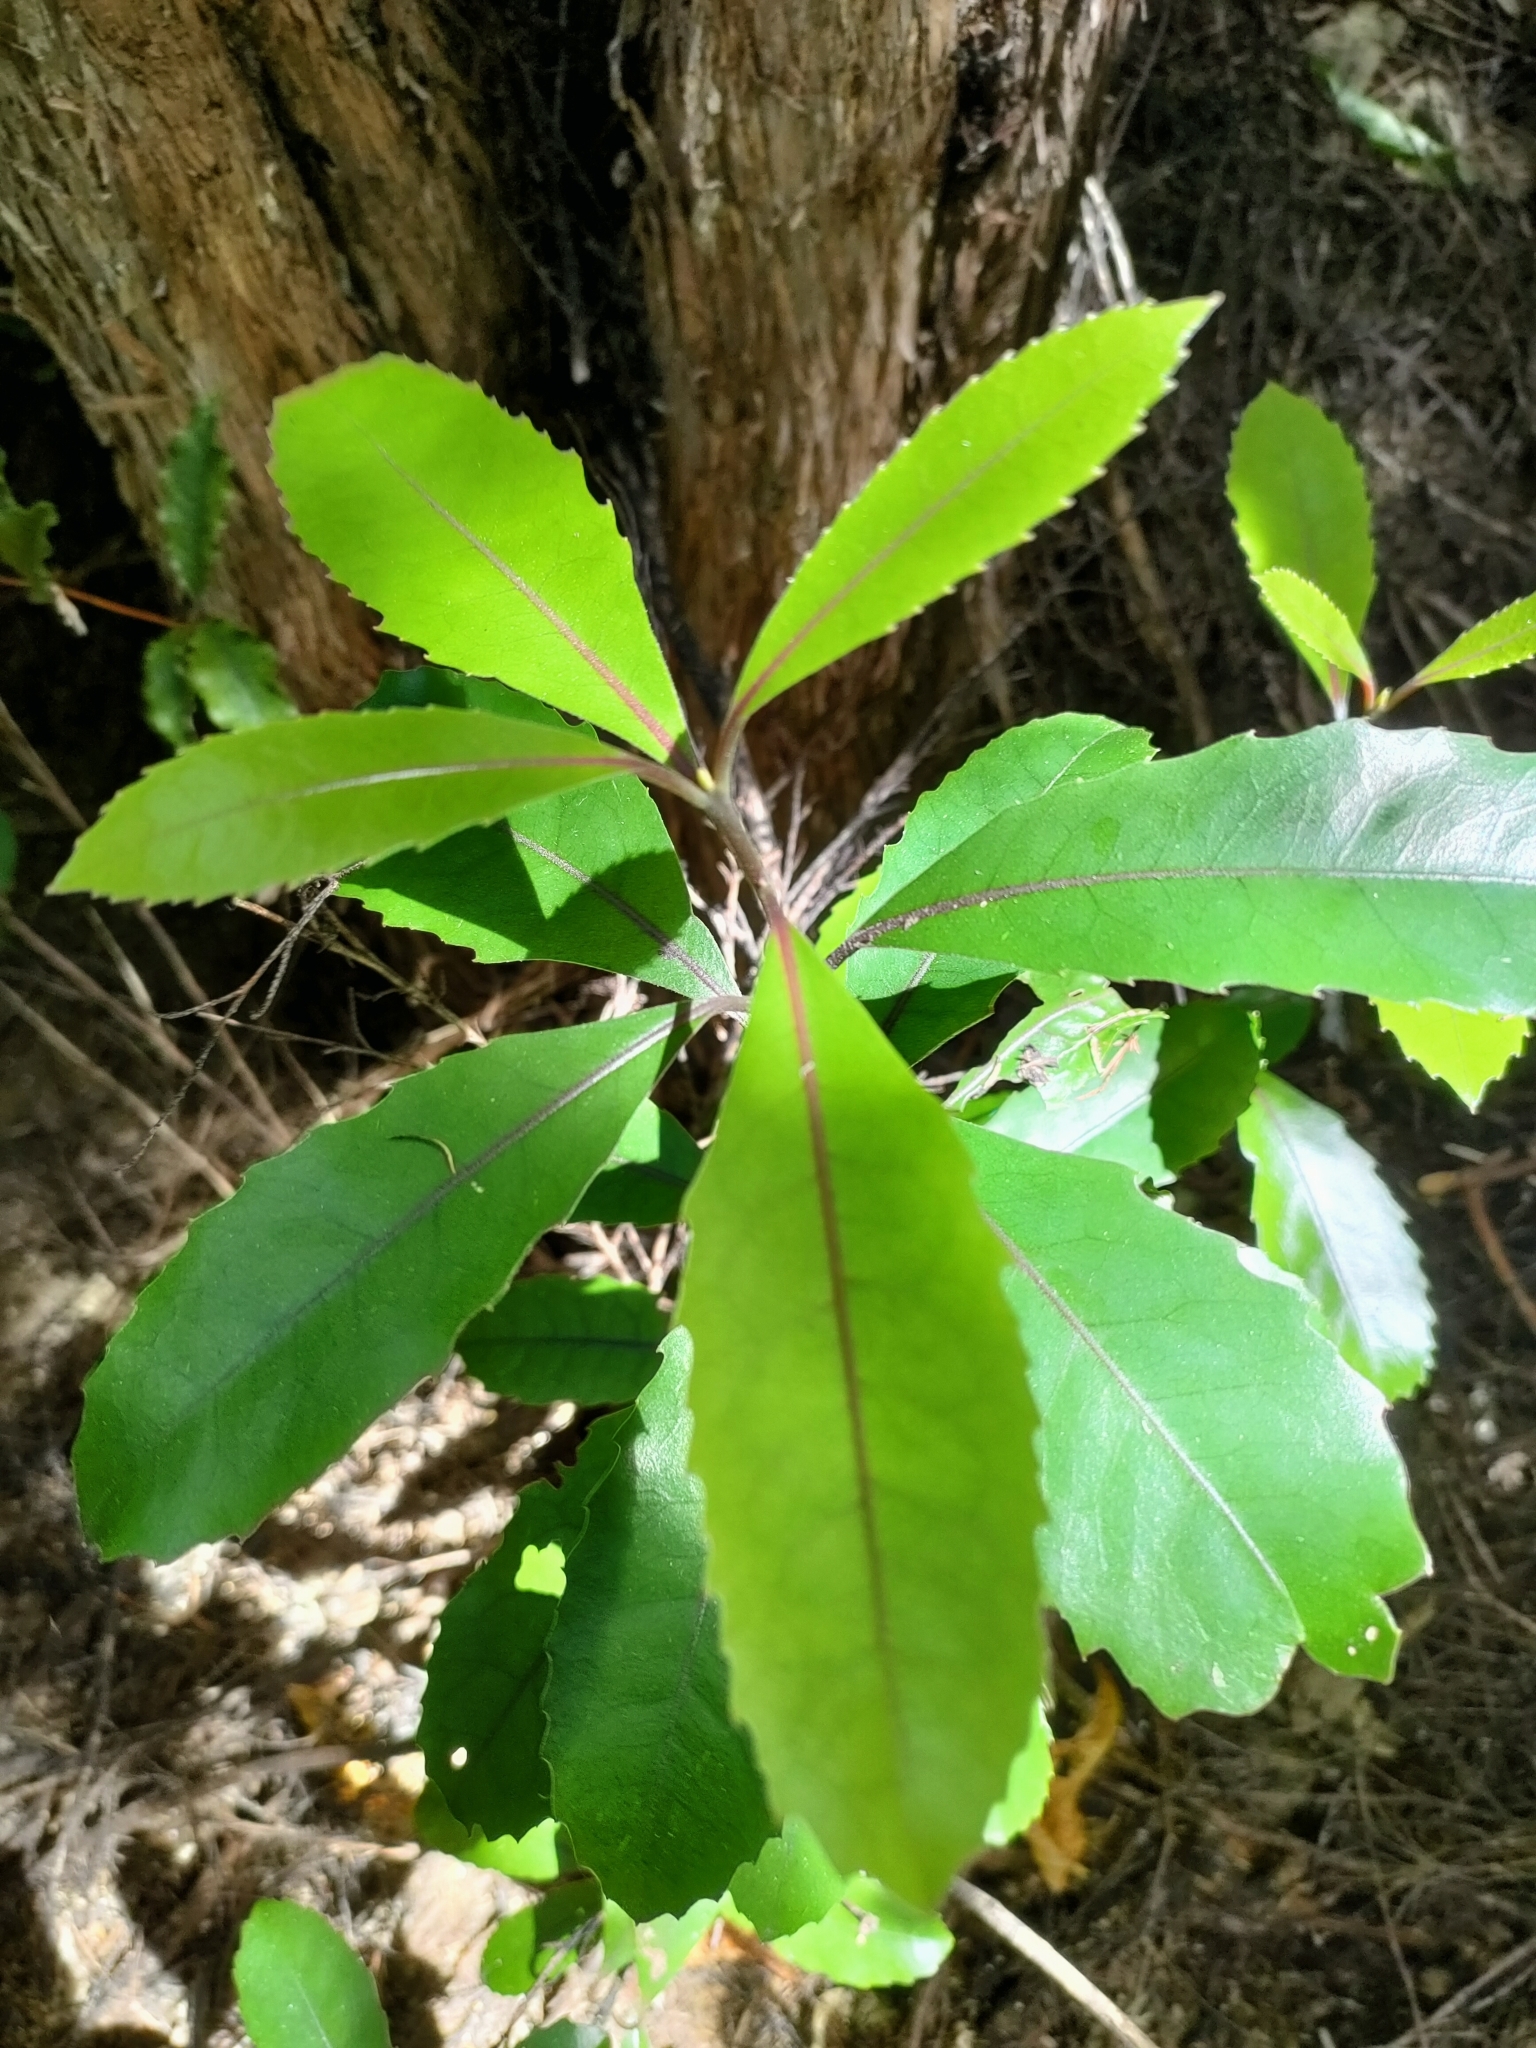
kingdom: Plantae
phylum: Tracheophyta
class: Magnoliopsida
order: Laurales
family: Monimiaceae
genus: Hedycarya
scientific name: Hedycarya arborea
